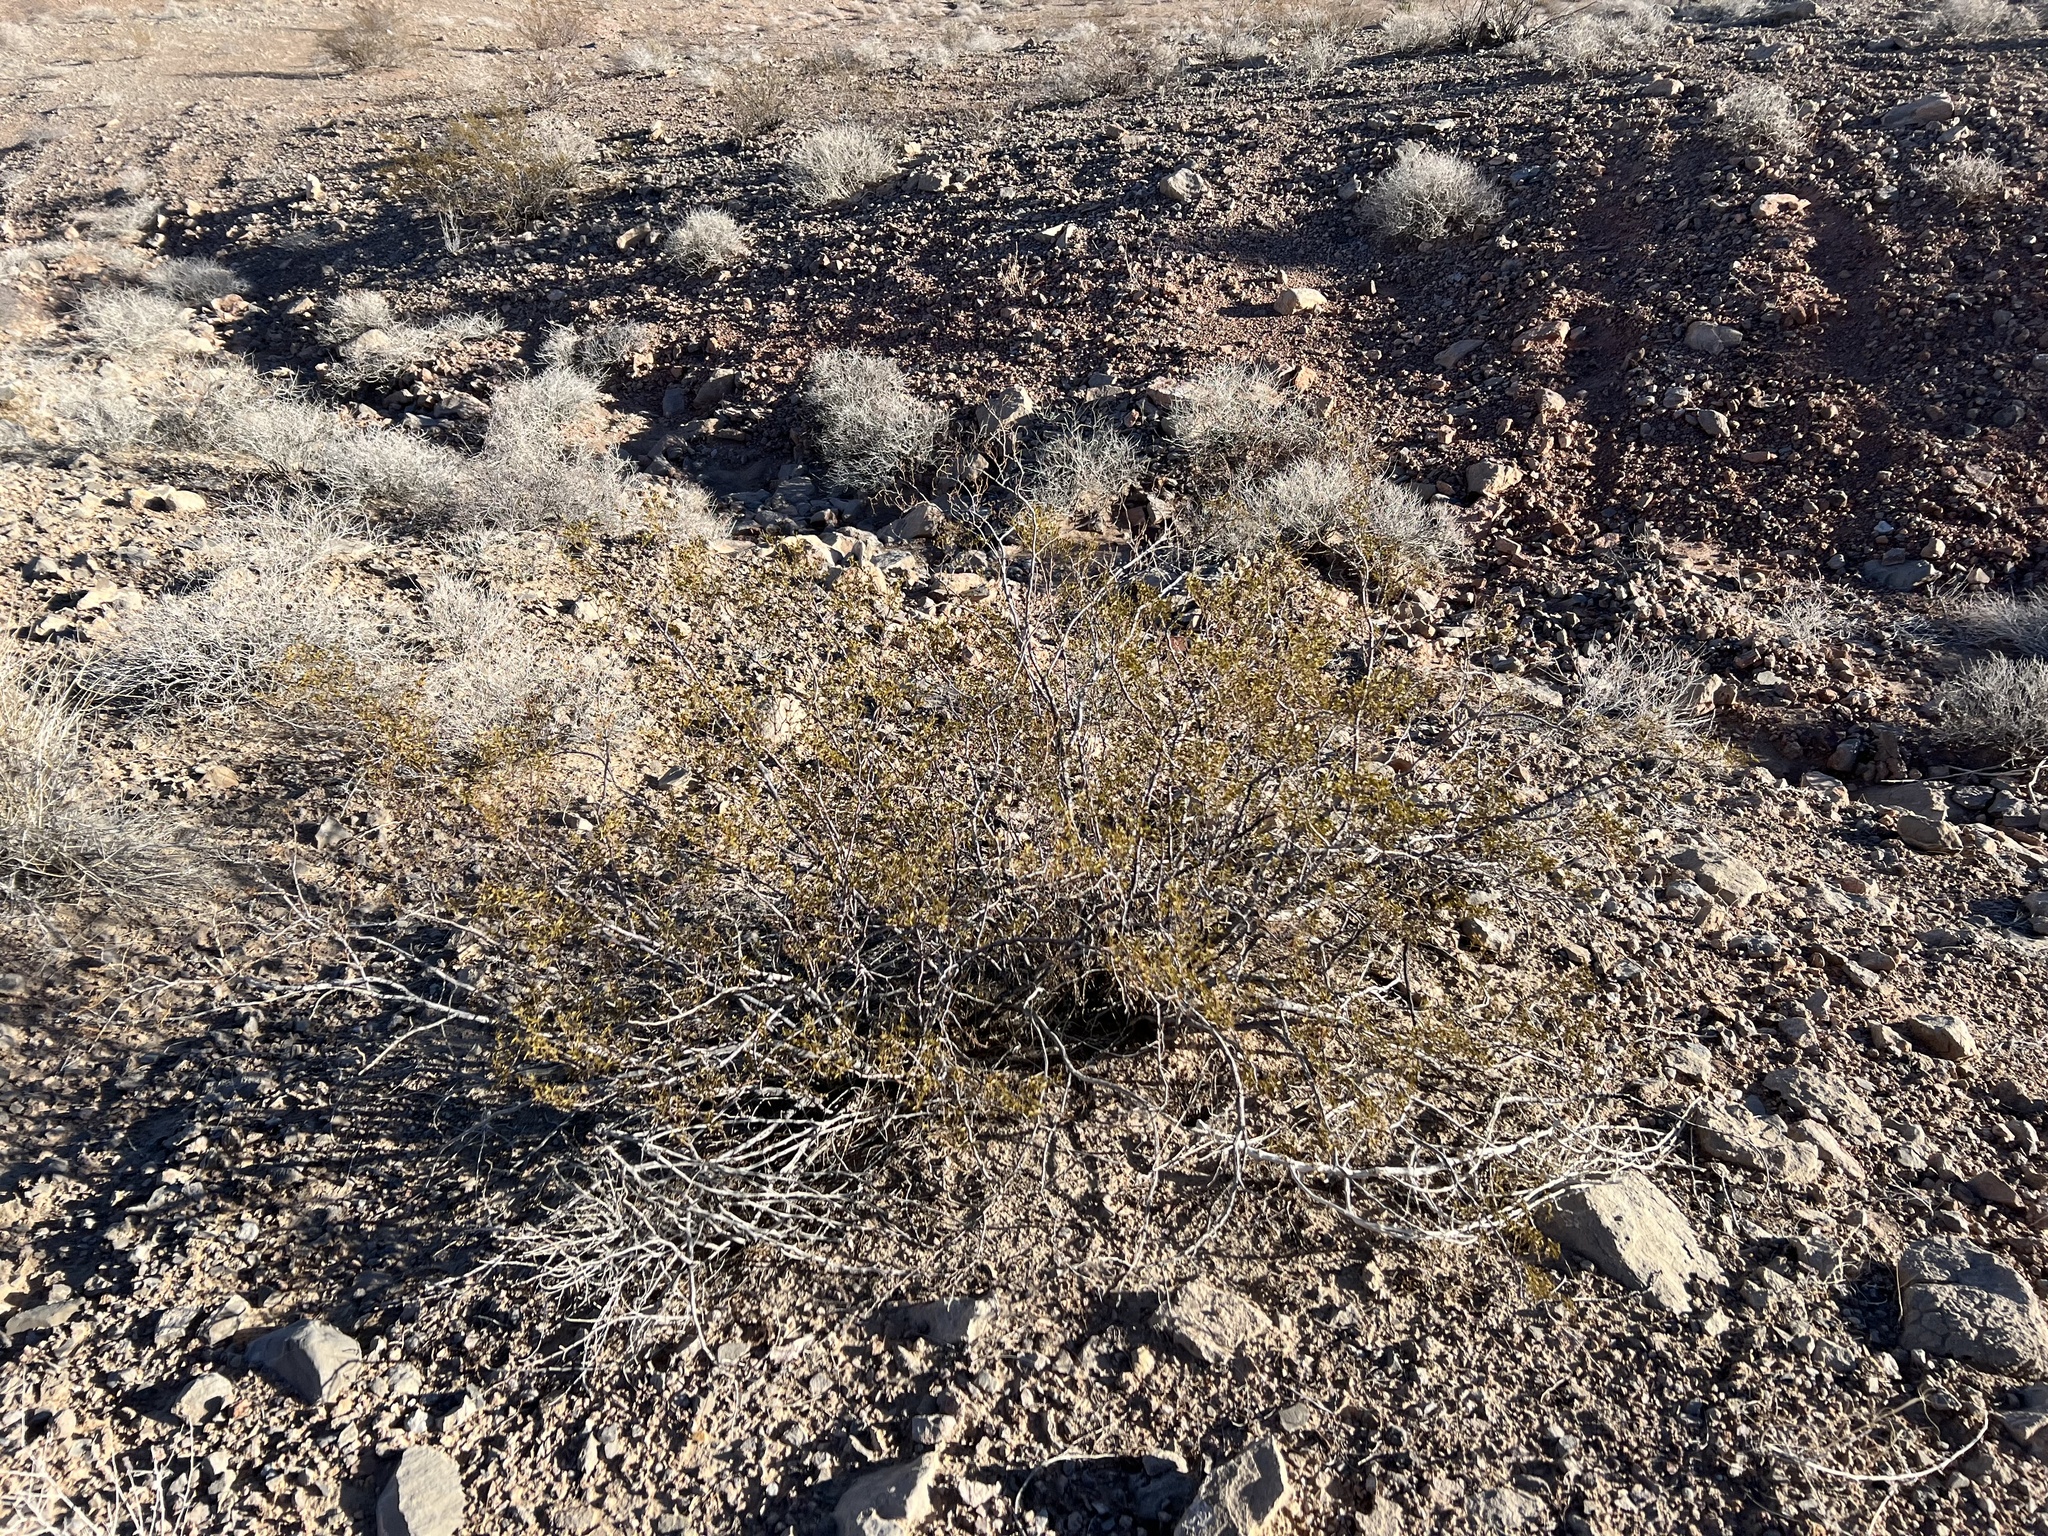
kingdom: Plantae
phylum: Tracheophyta
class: Magnoliopsida
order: Zygophyllales
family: Zygophyllaceae
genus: Larrea
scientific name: Larrea tridentata
